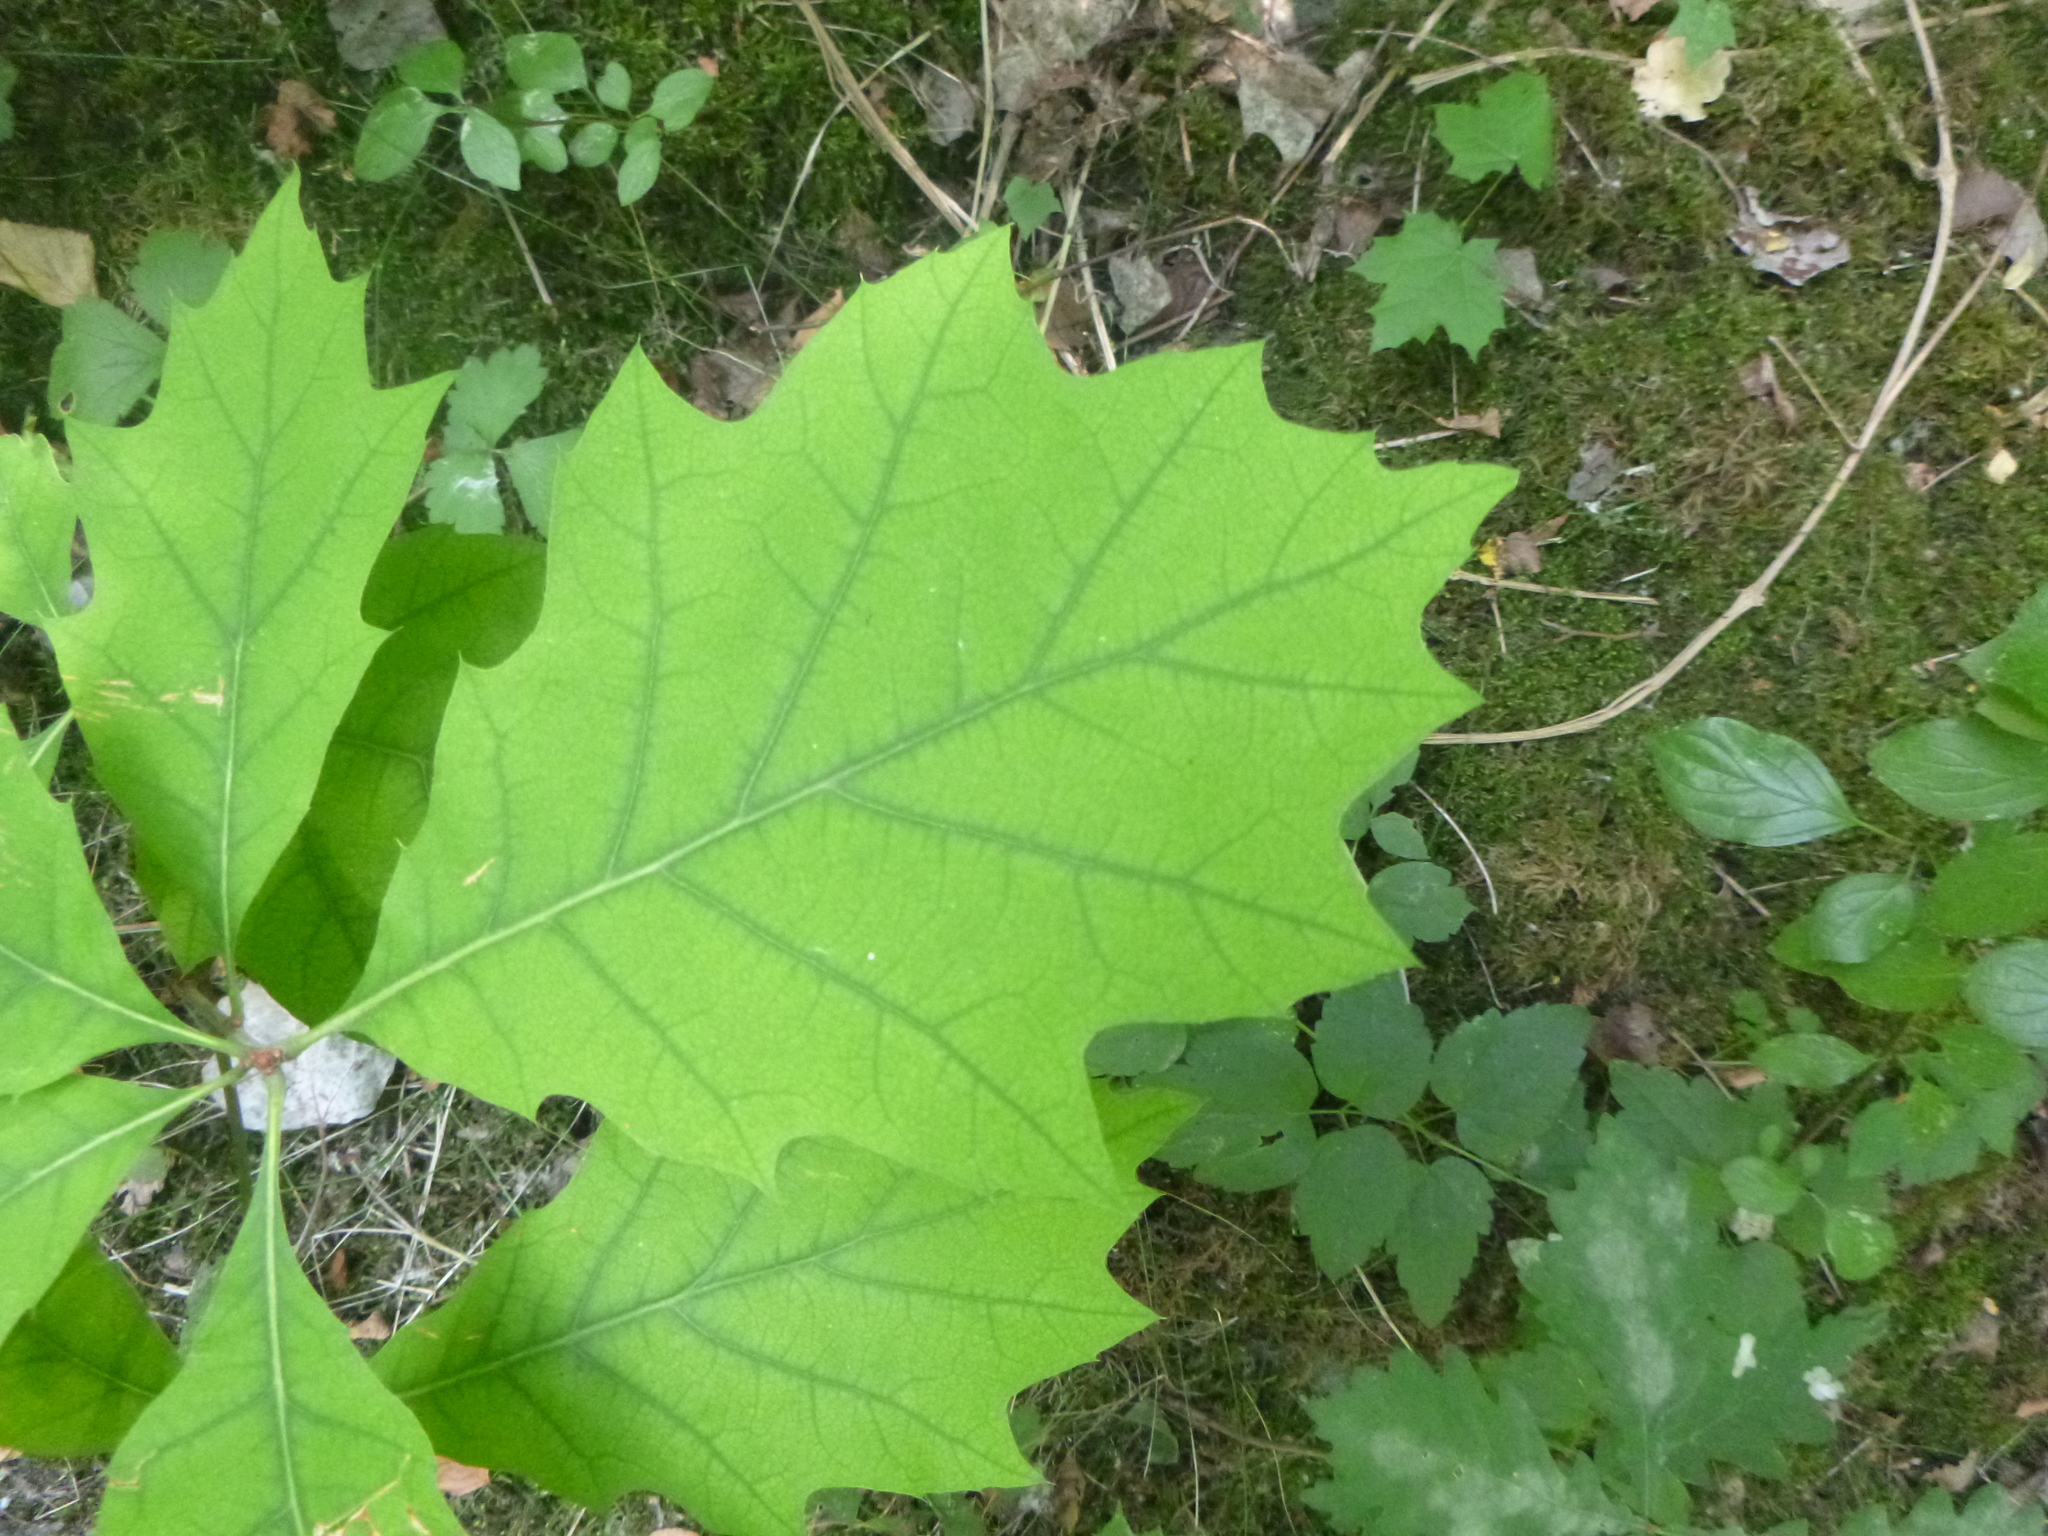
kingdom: Plantae
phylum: Tracheophyta
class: Magnoliopsida
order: Fagales
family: Fagaceae
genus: Quercus
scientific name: Quercus rubra
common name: Red oak
